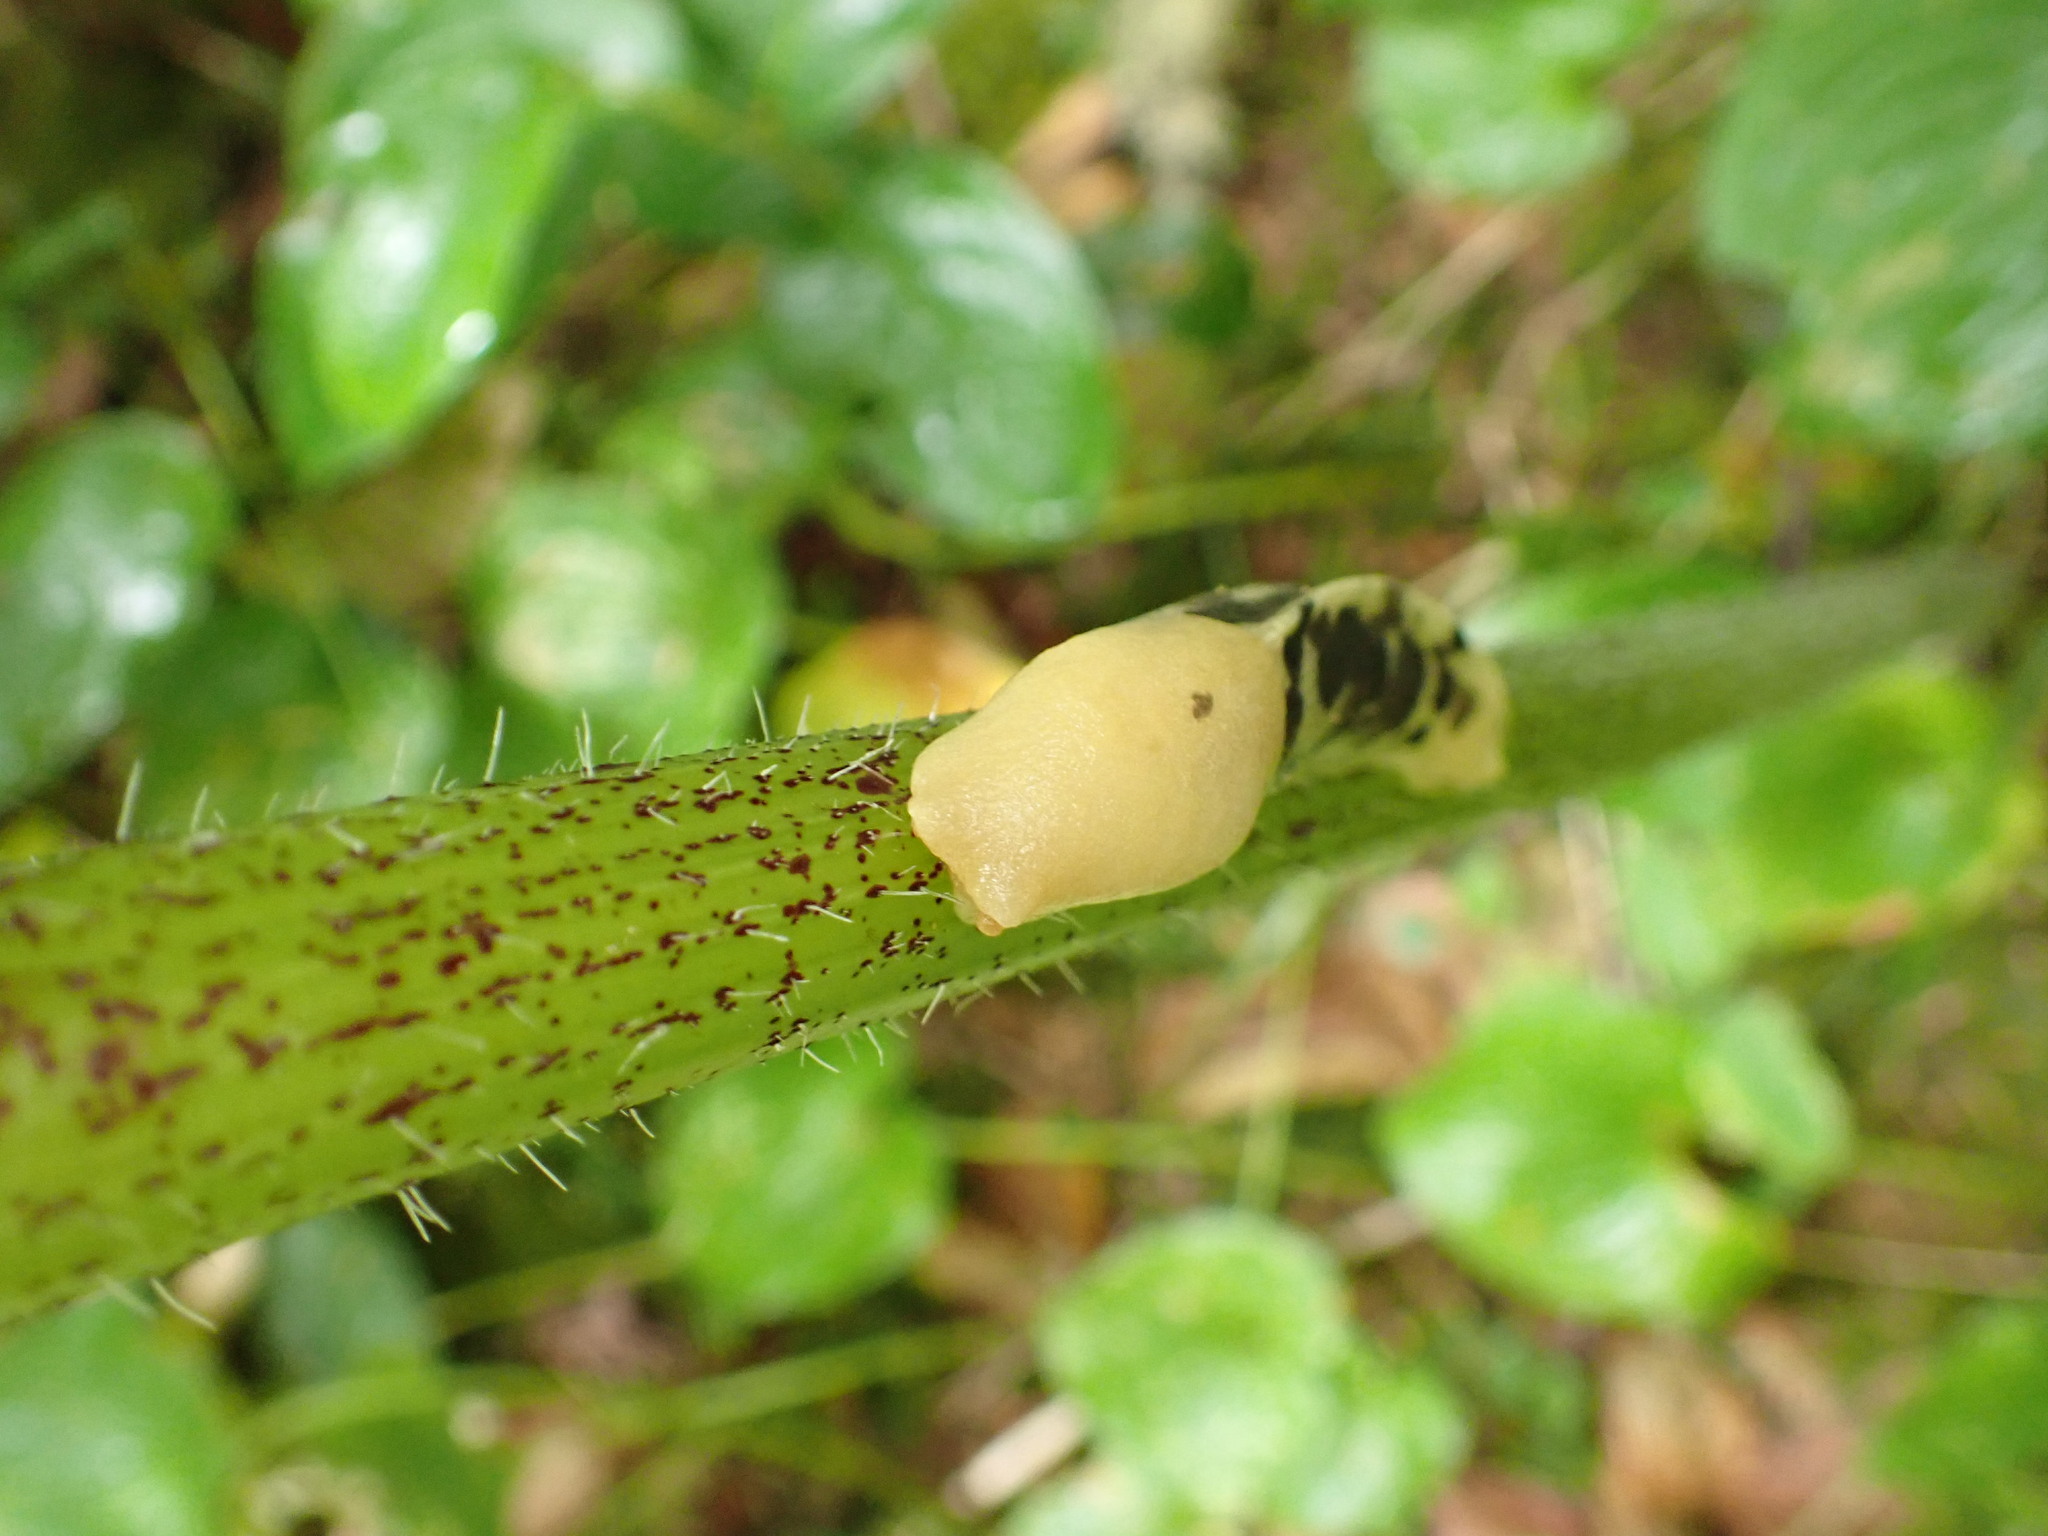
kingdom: Animalia
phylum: Mollusca
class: Gastropoda
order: Stylommatophora
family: Ariolimacidae
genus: Ariolimax
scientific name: Ariolimax columbianus
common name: Pacific banana slug
